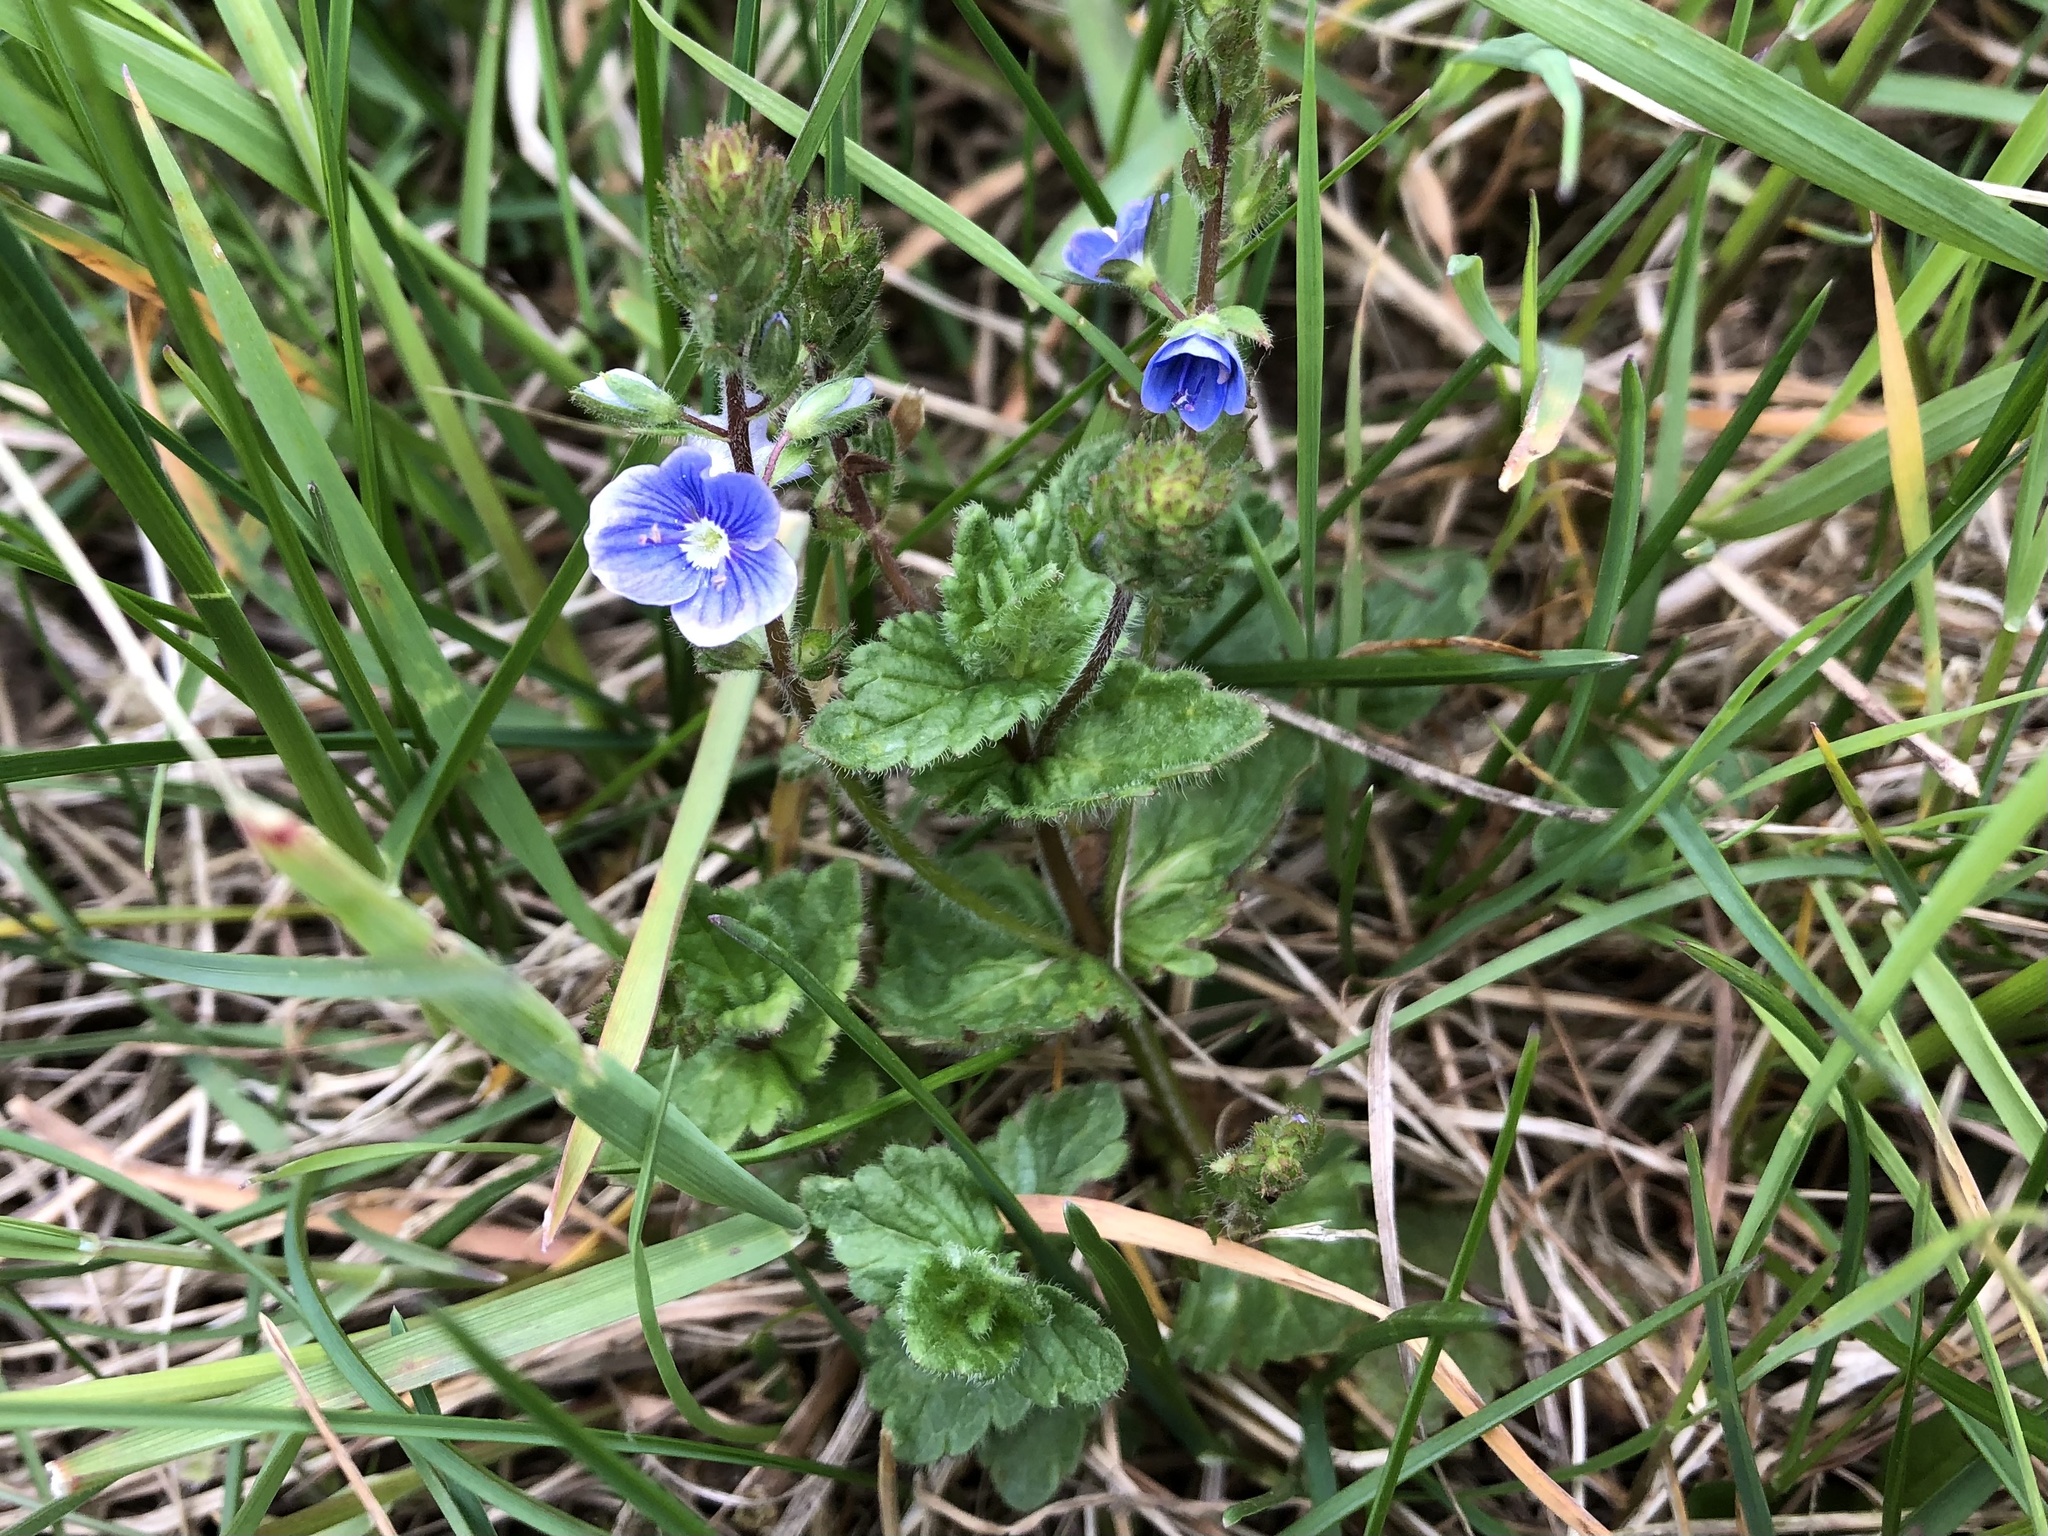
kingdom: Plantae
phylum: Tracheophyta
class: Magnoliopsida
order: Lamiales
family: Plantaginaceae
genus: Veronica
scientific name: Veronica chamaedrys
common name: Germander speedwell
